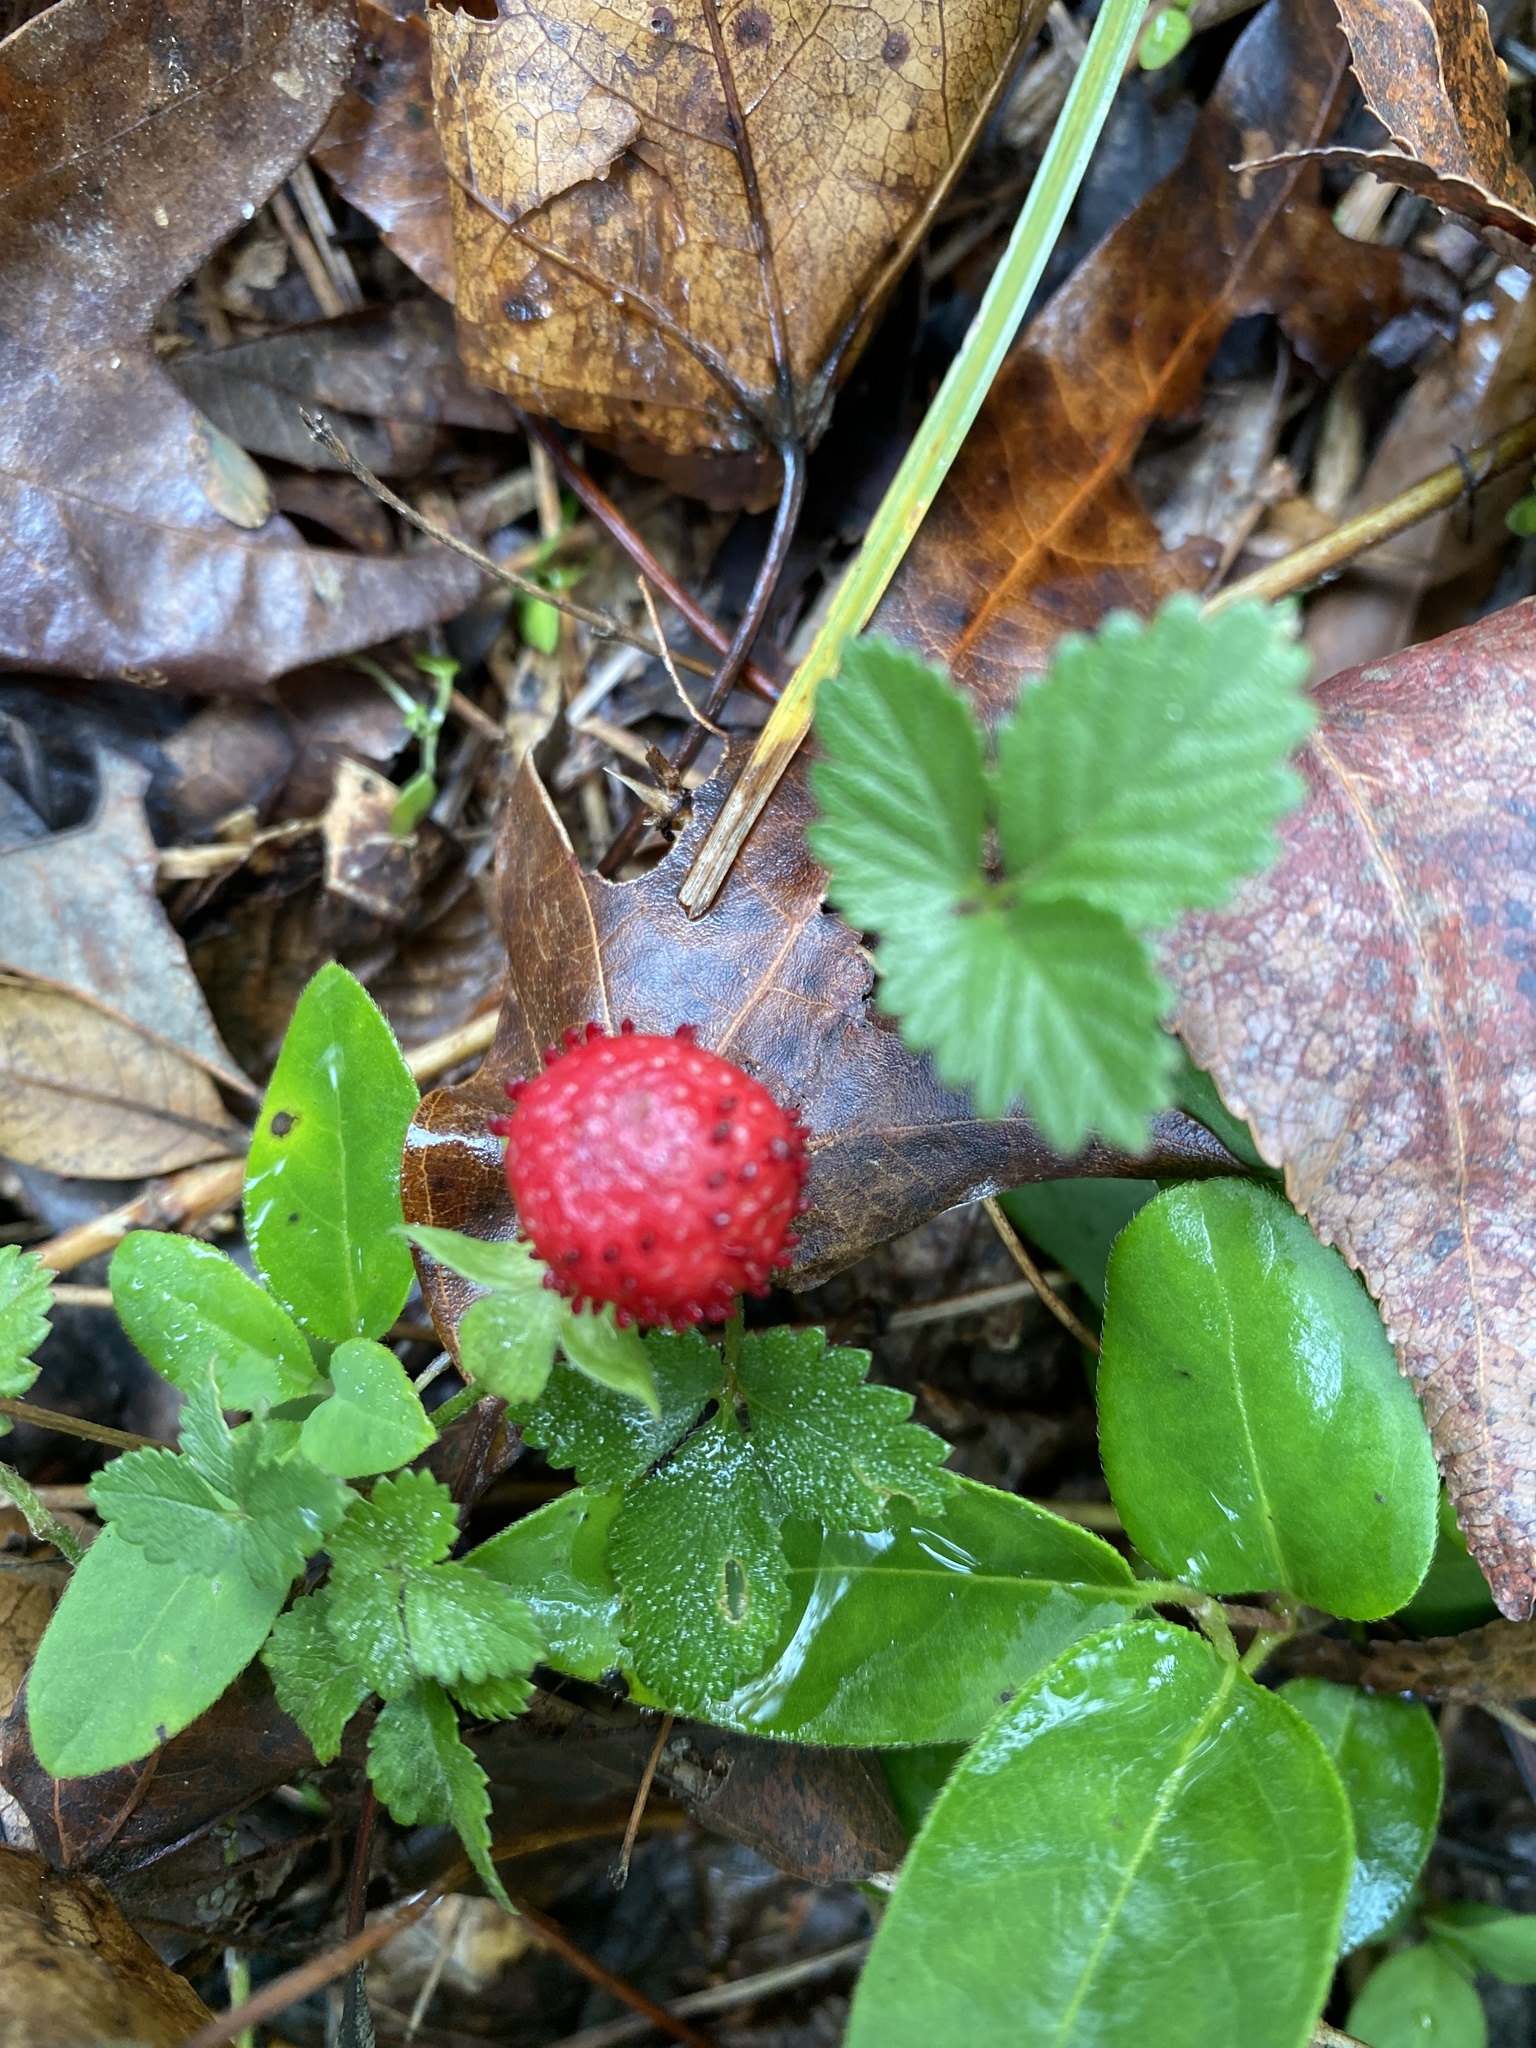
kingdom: Plantae
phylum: Tracheophyta
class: Magnoliopsida
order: Rosales
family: Rosaceae
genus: Potentilla
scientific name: Potentilla indica
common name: Yellow-flowered strawberry
